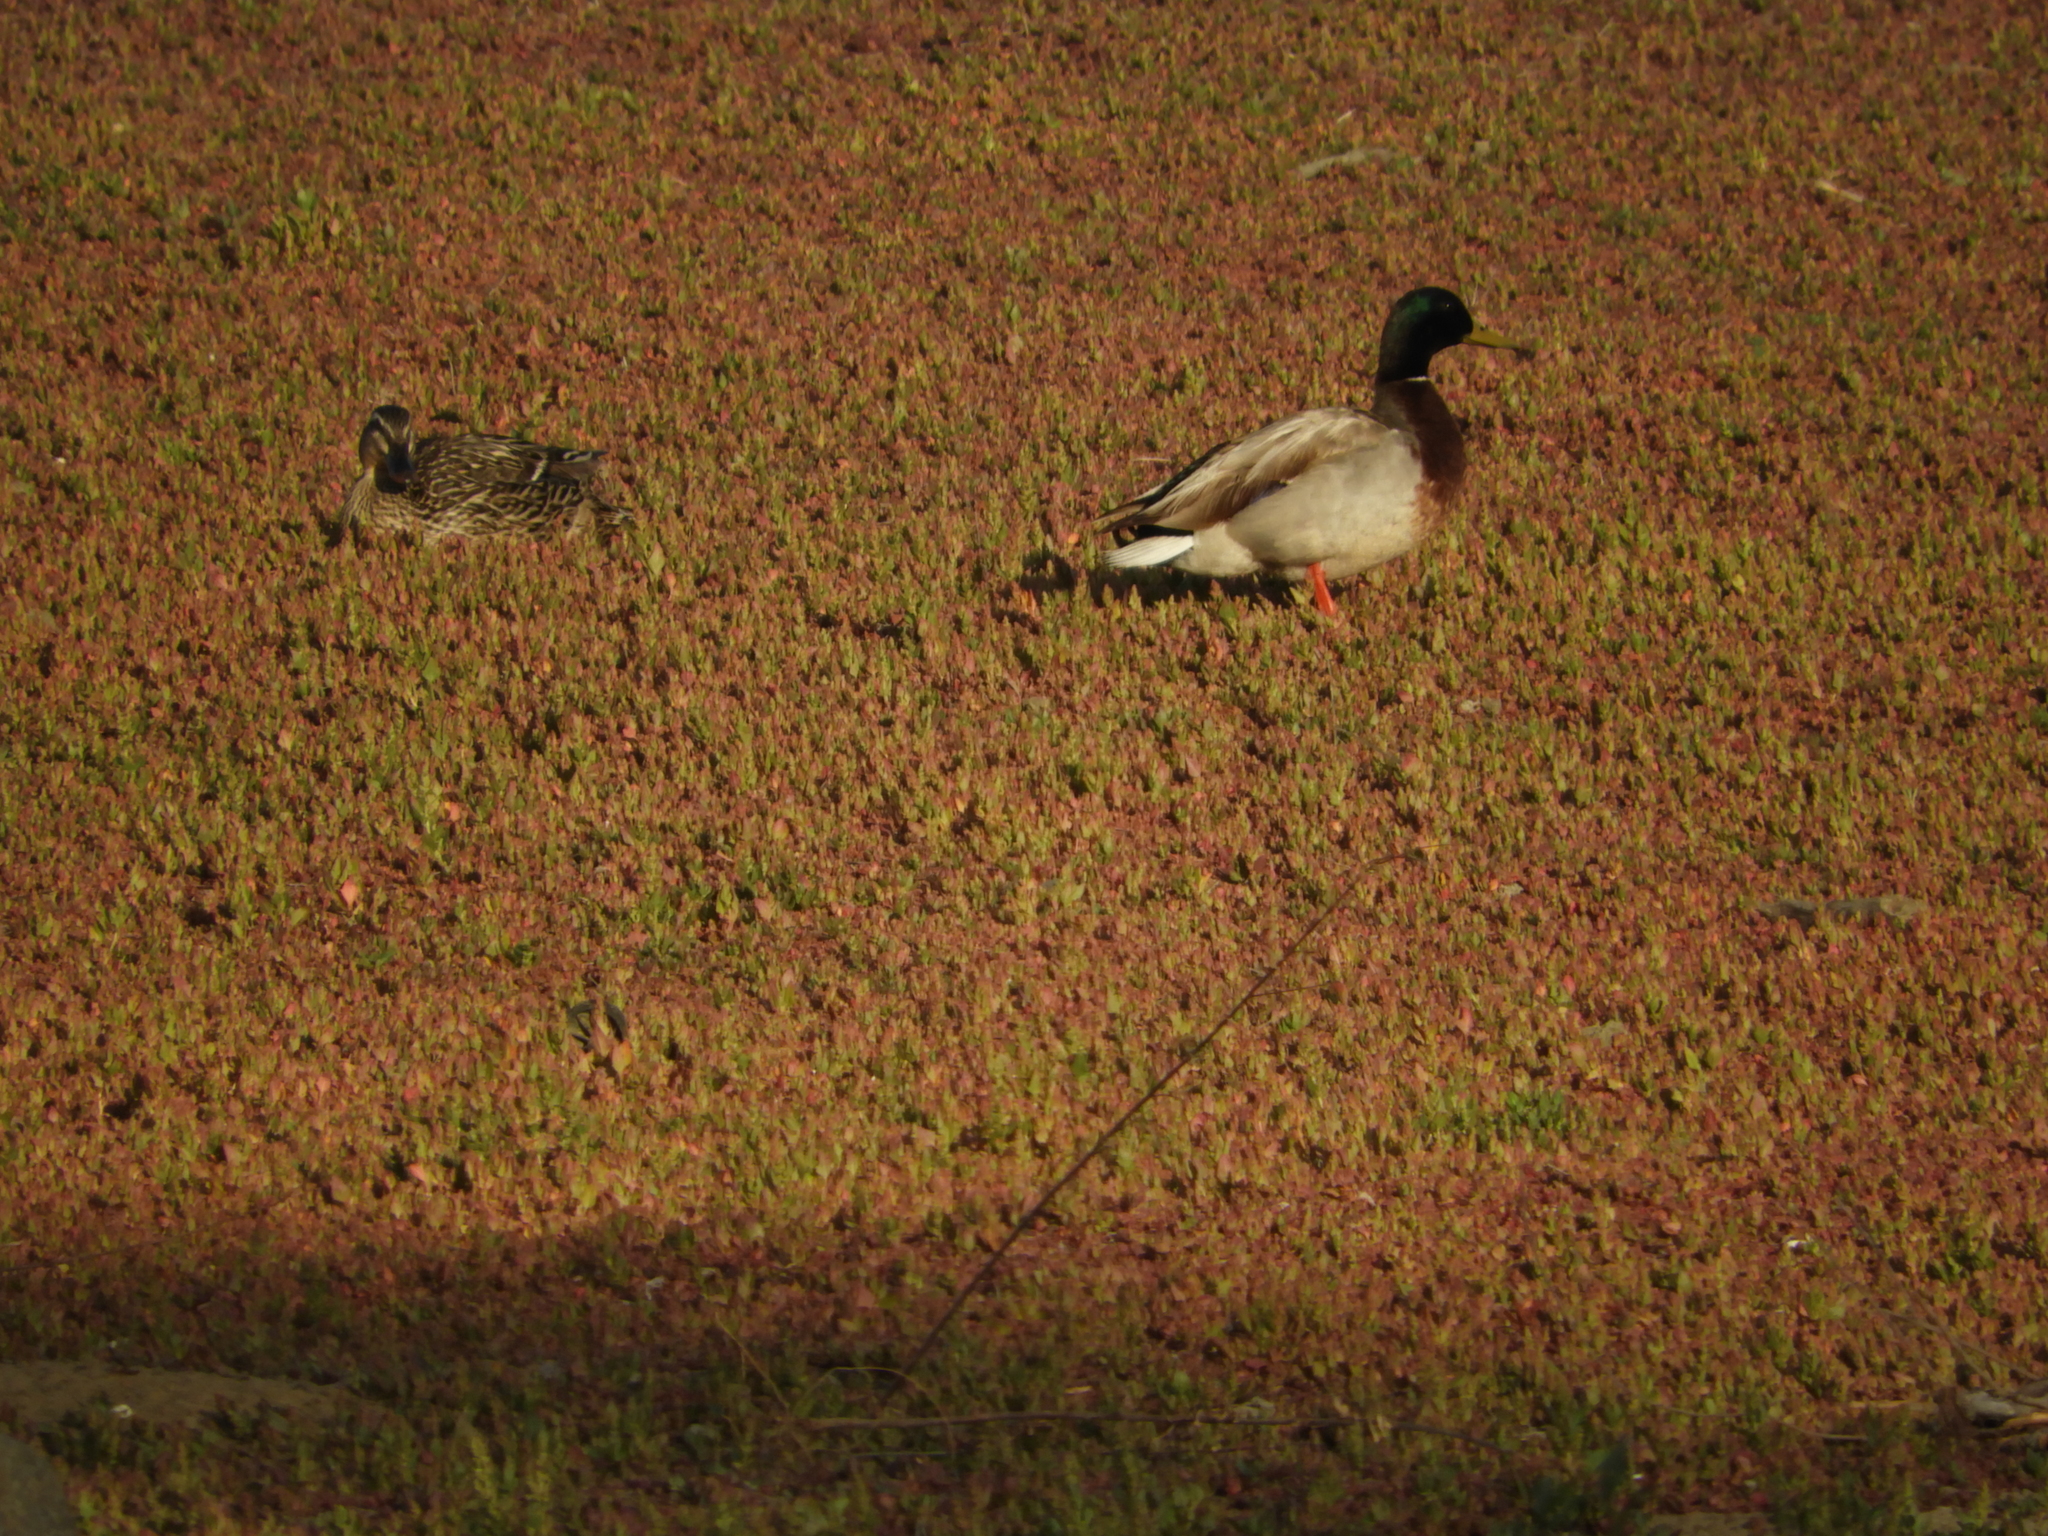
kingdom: Animalia
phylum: Chordata
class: Aves
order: Anseriformes
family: Anatidae
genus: Anas
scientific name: Anas platyrhynchos
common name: Mallard
